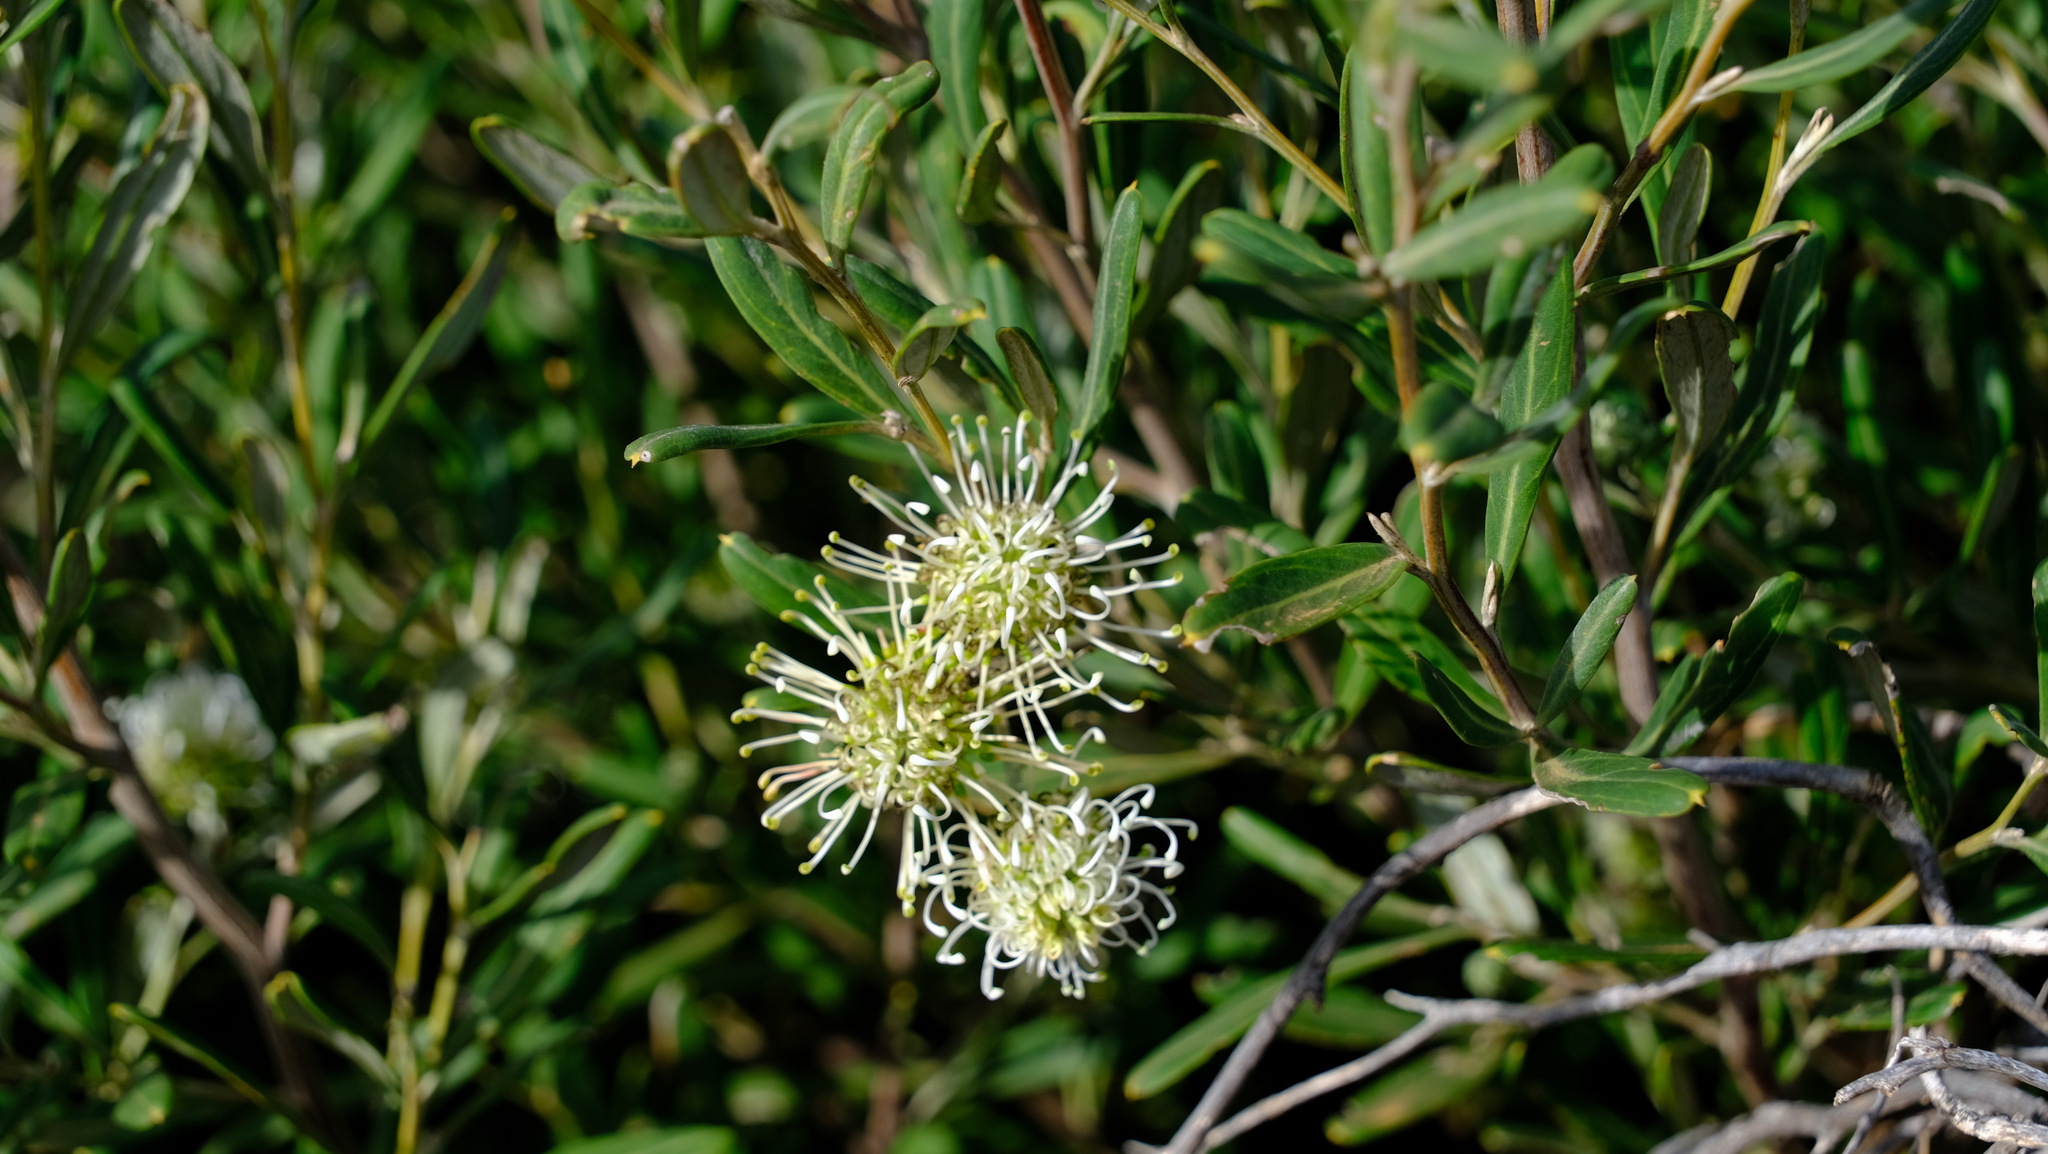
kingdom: Plantae
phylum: Tracheophyta
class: Magnoliopsida
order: Proteales
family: Proteaceae
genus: Grevillea
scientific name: Grevillea commutata
